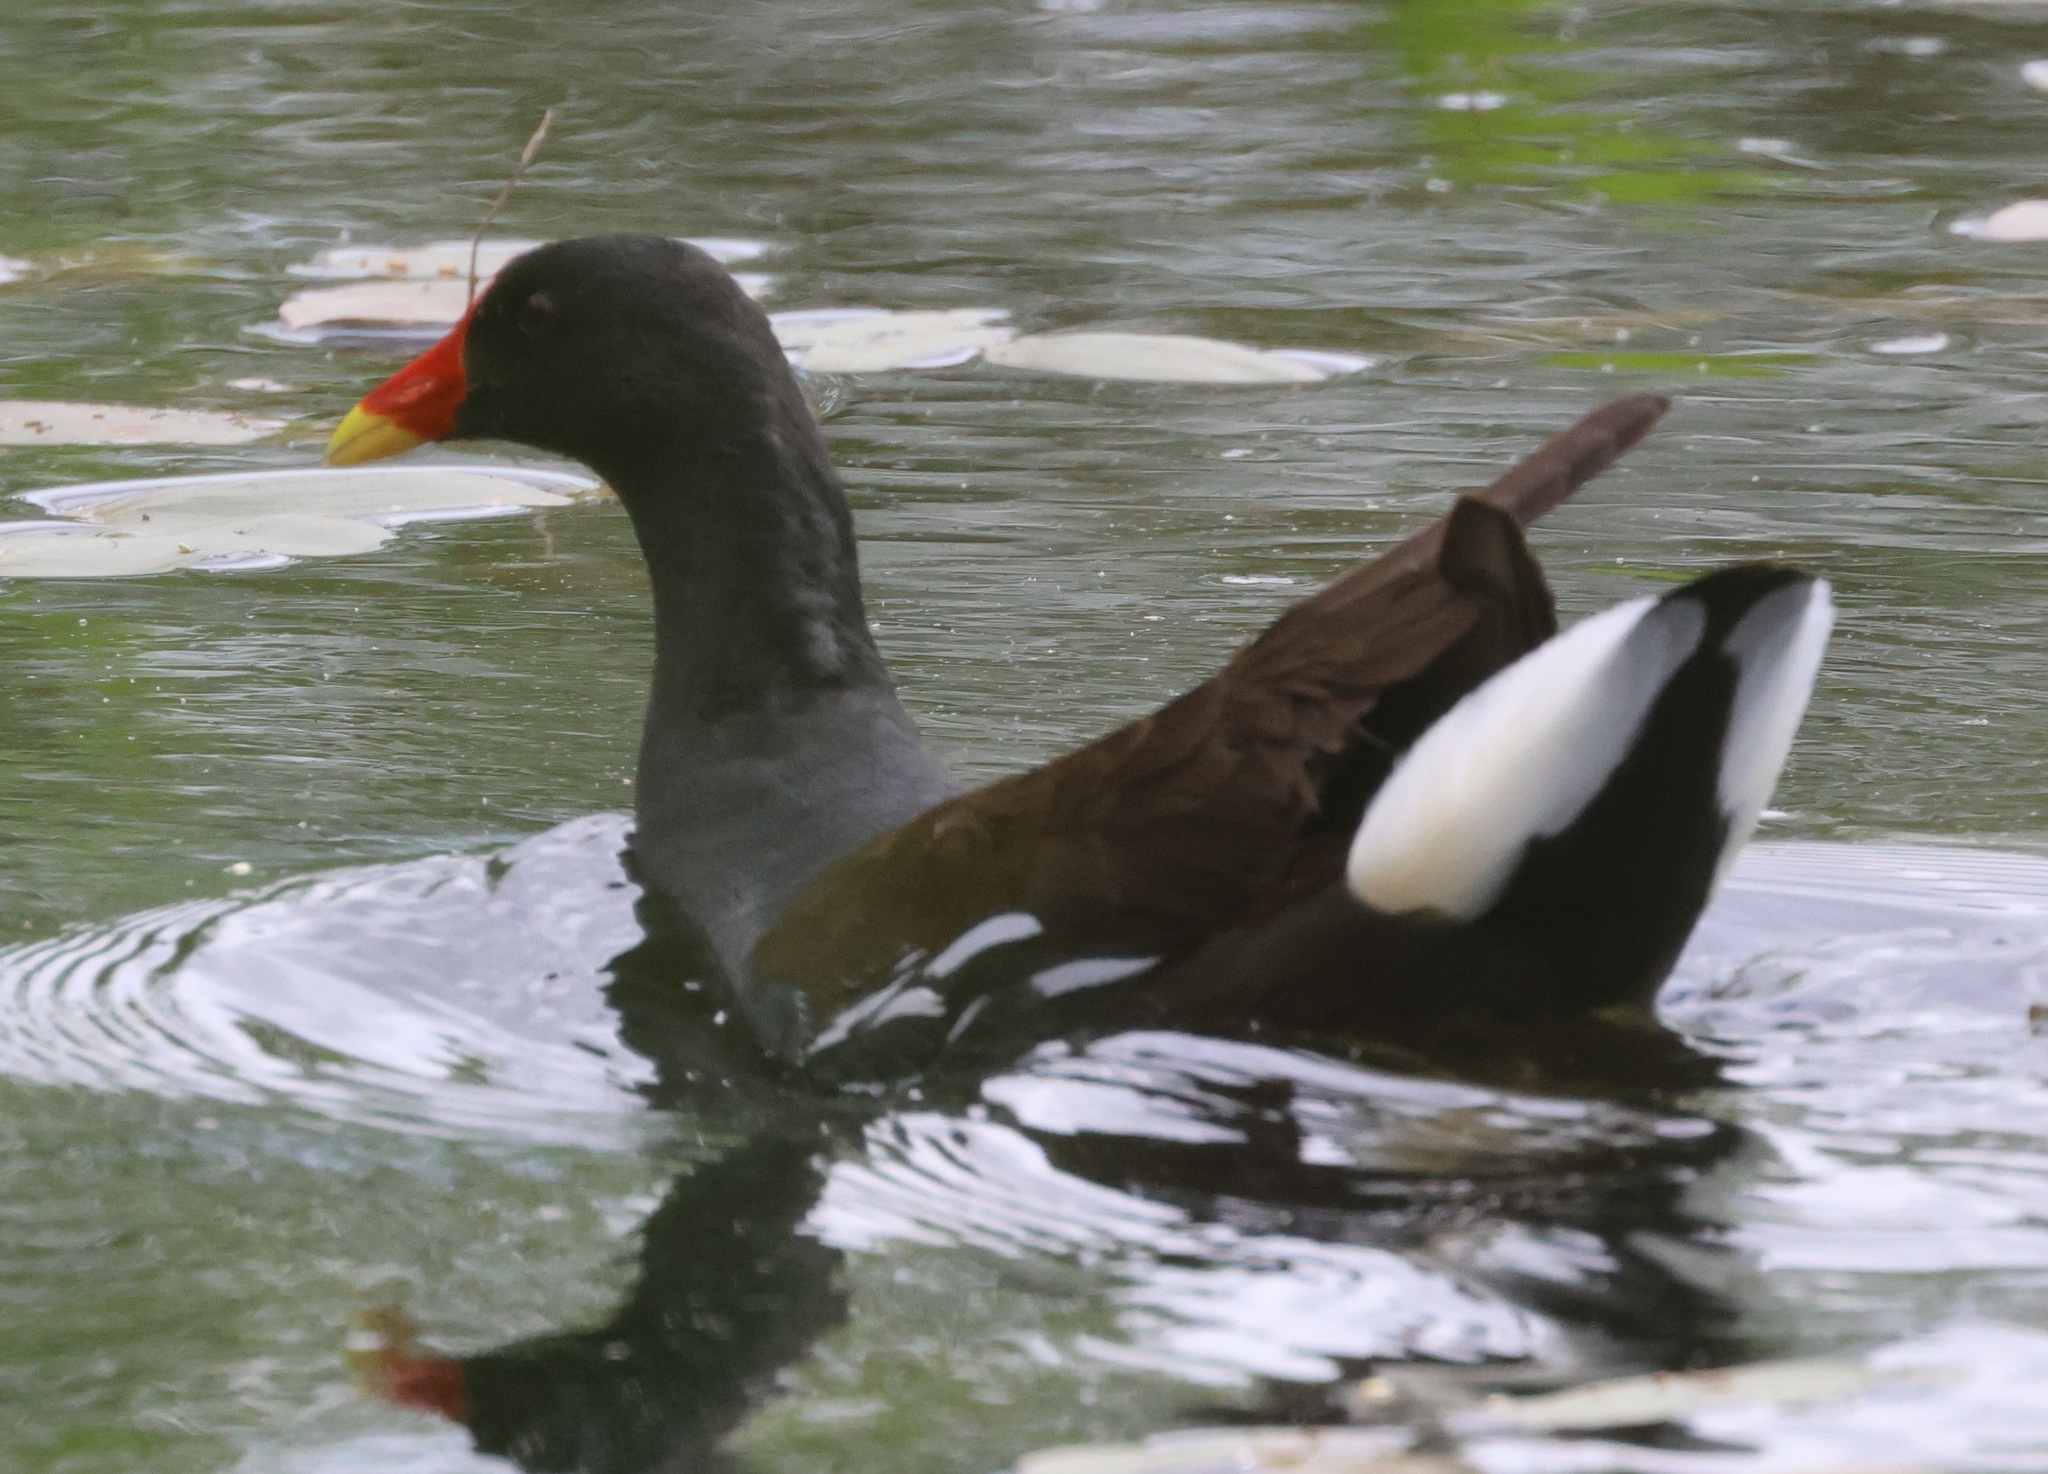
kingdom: Animalia
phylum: Chordata
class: Aves
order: Gruiformes
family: Rallidae
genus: Gallinula
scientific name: Gallinula chloropus
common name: Common moorhen
